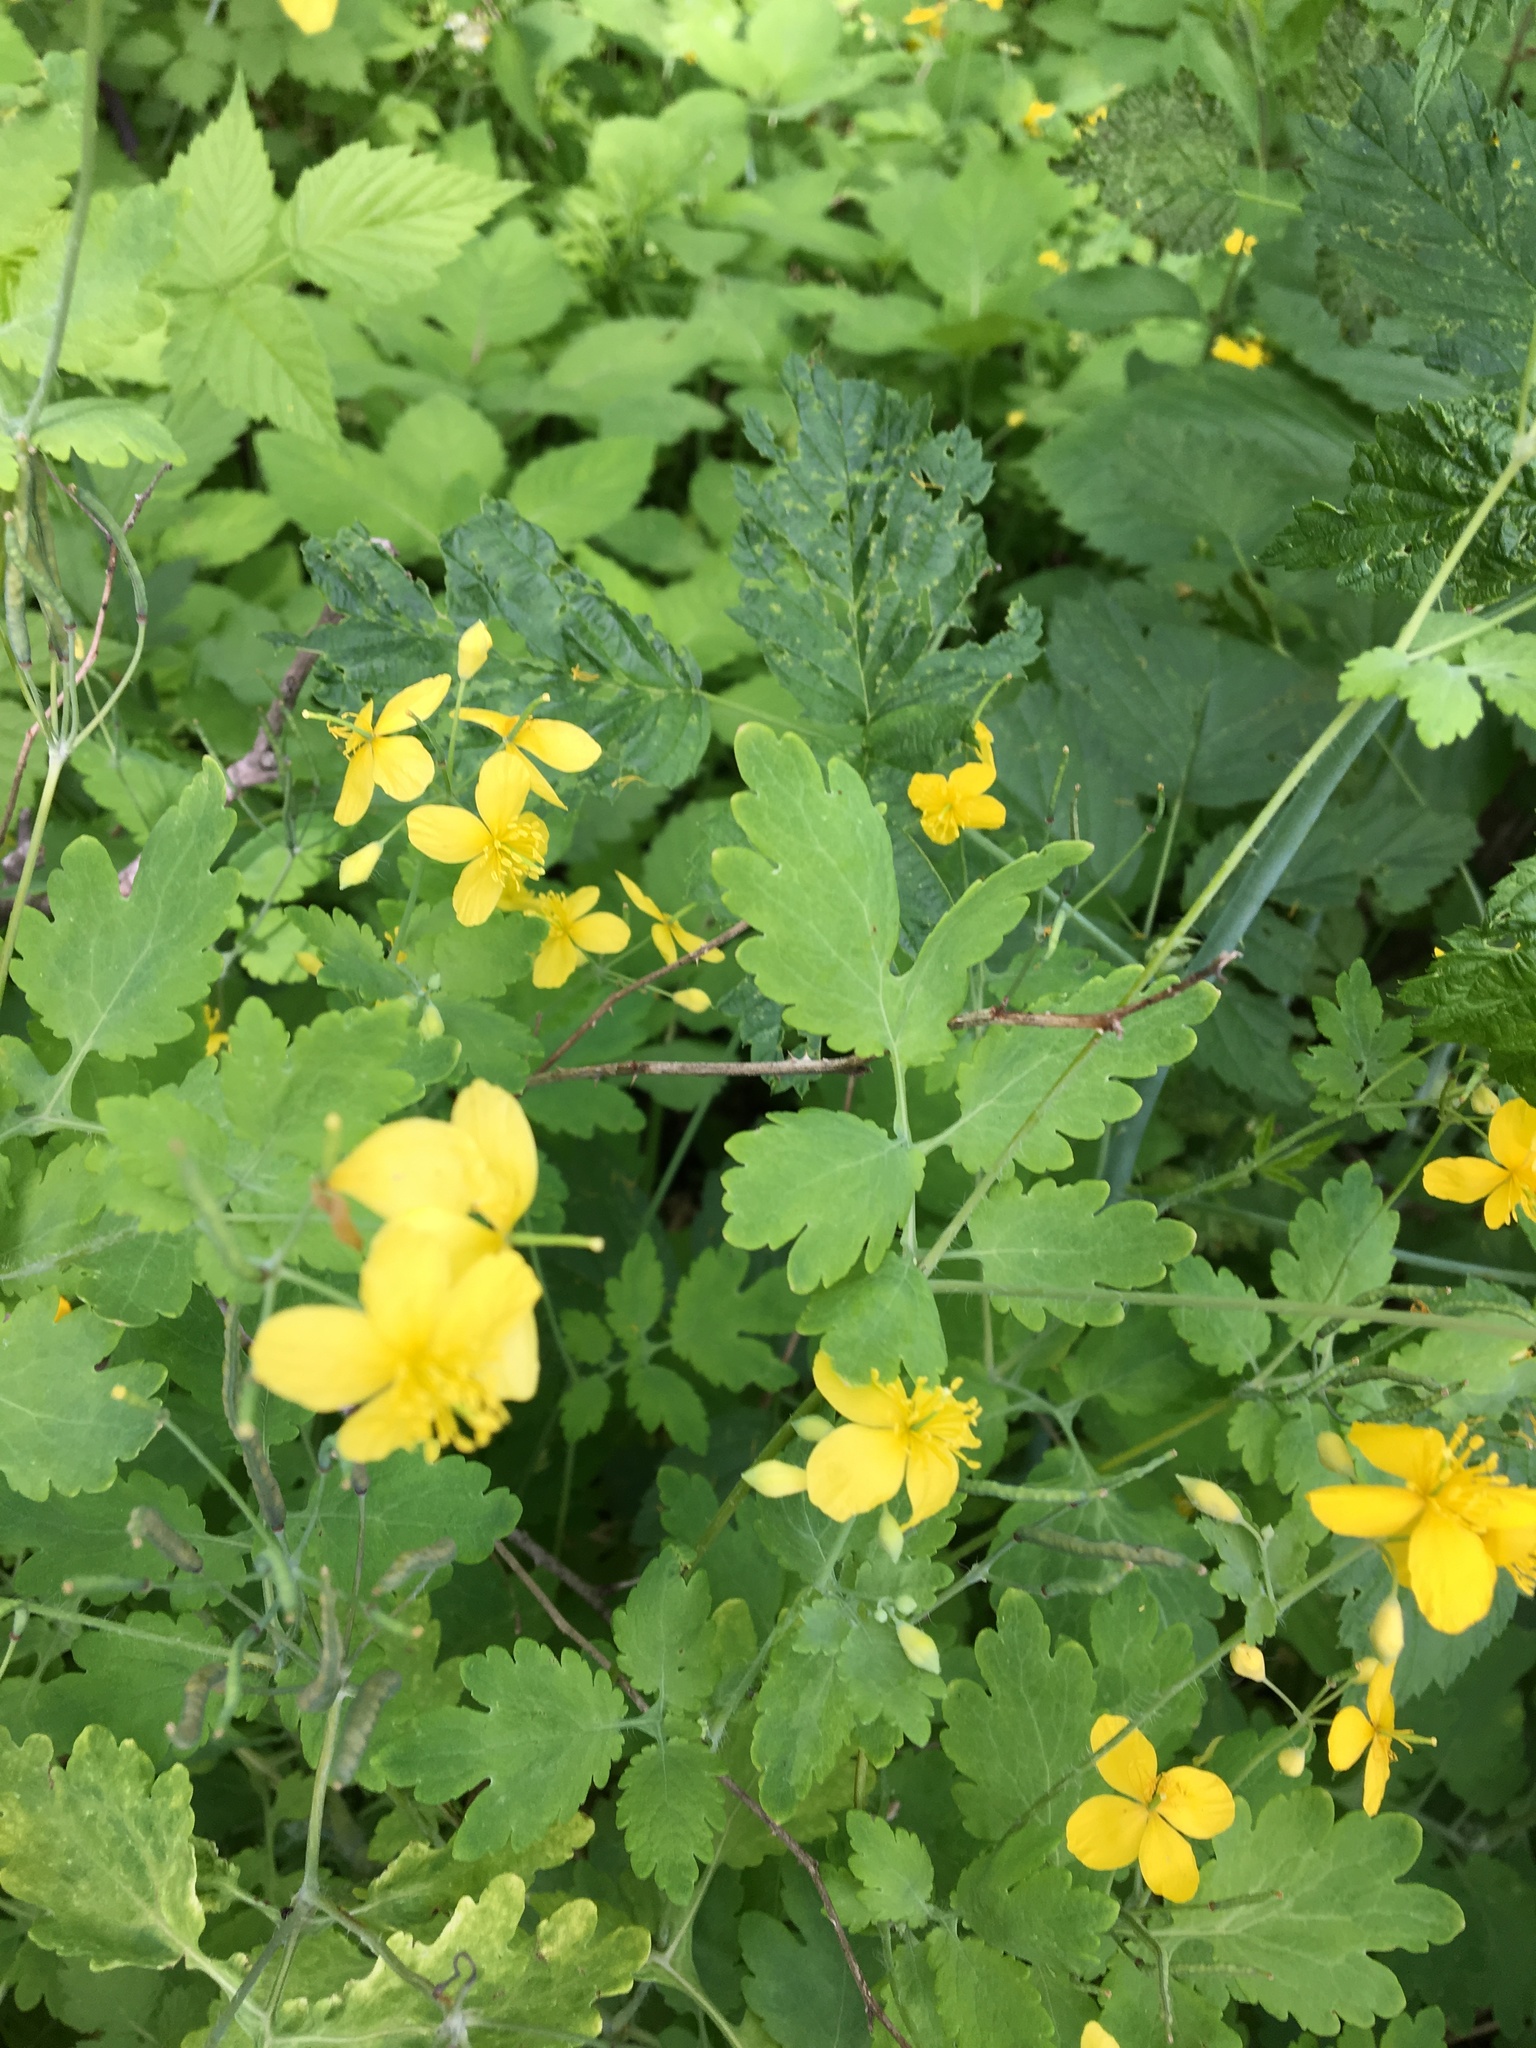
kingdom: Plantae
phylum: Tracheophyta
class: Magnoliopsida
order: Ranunculales
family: Papaveraceae
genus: Chelidonium
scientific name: Chelidonium majus
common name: Greater celandine
